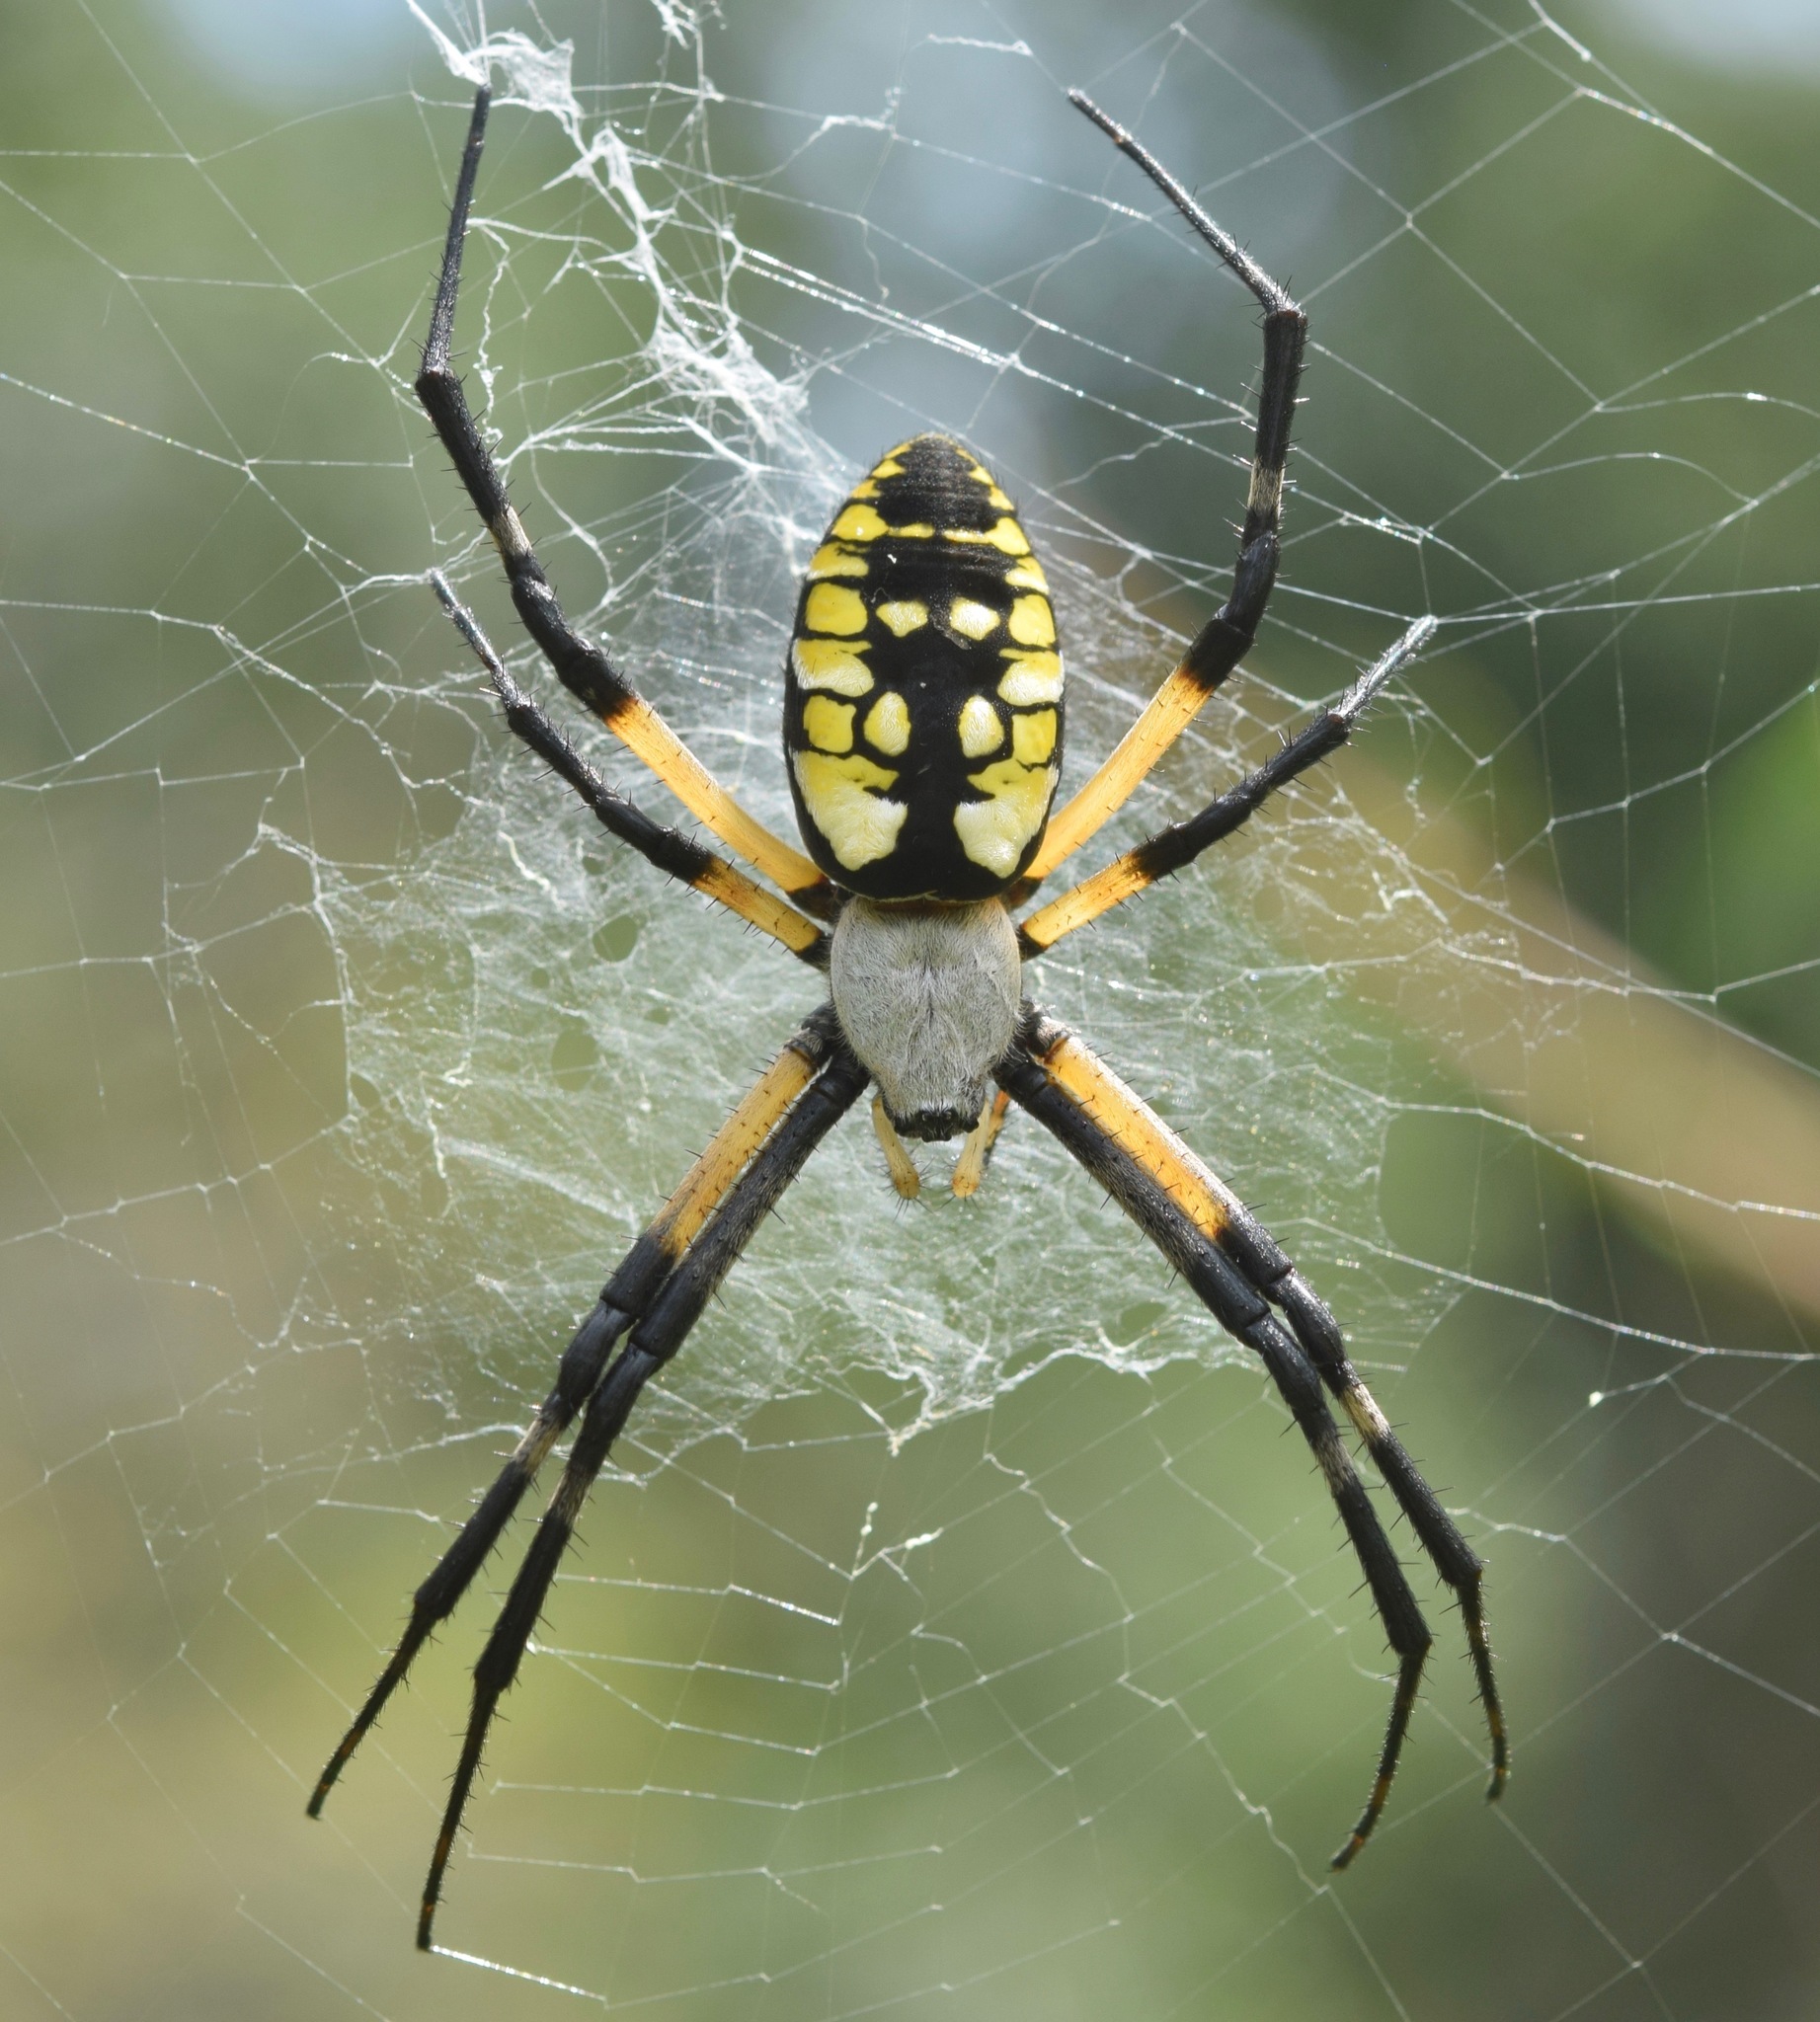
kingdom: Animalia
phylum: Arthropoda
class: Arachnida
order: Araneae
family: Araneidae
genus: Argiope
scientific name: Argiope aurantia
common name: Orb weavers
